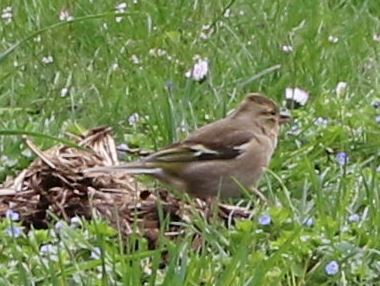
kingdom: Animalia
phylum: Chordata
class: Aves
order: Passeriformes
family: Fringillidae
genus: Fringilla
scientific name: Fringilla coelebs
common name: Common chaffinch
